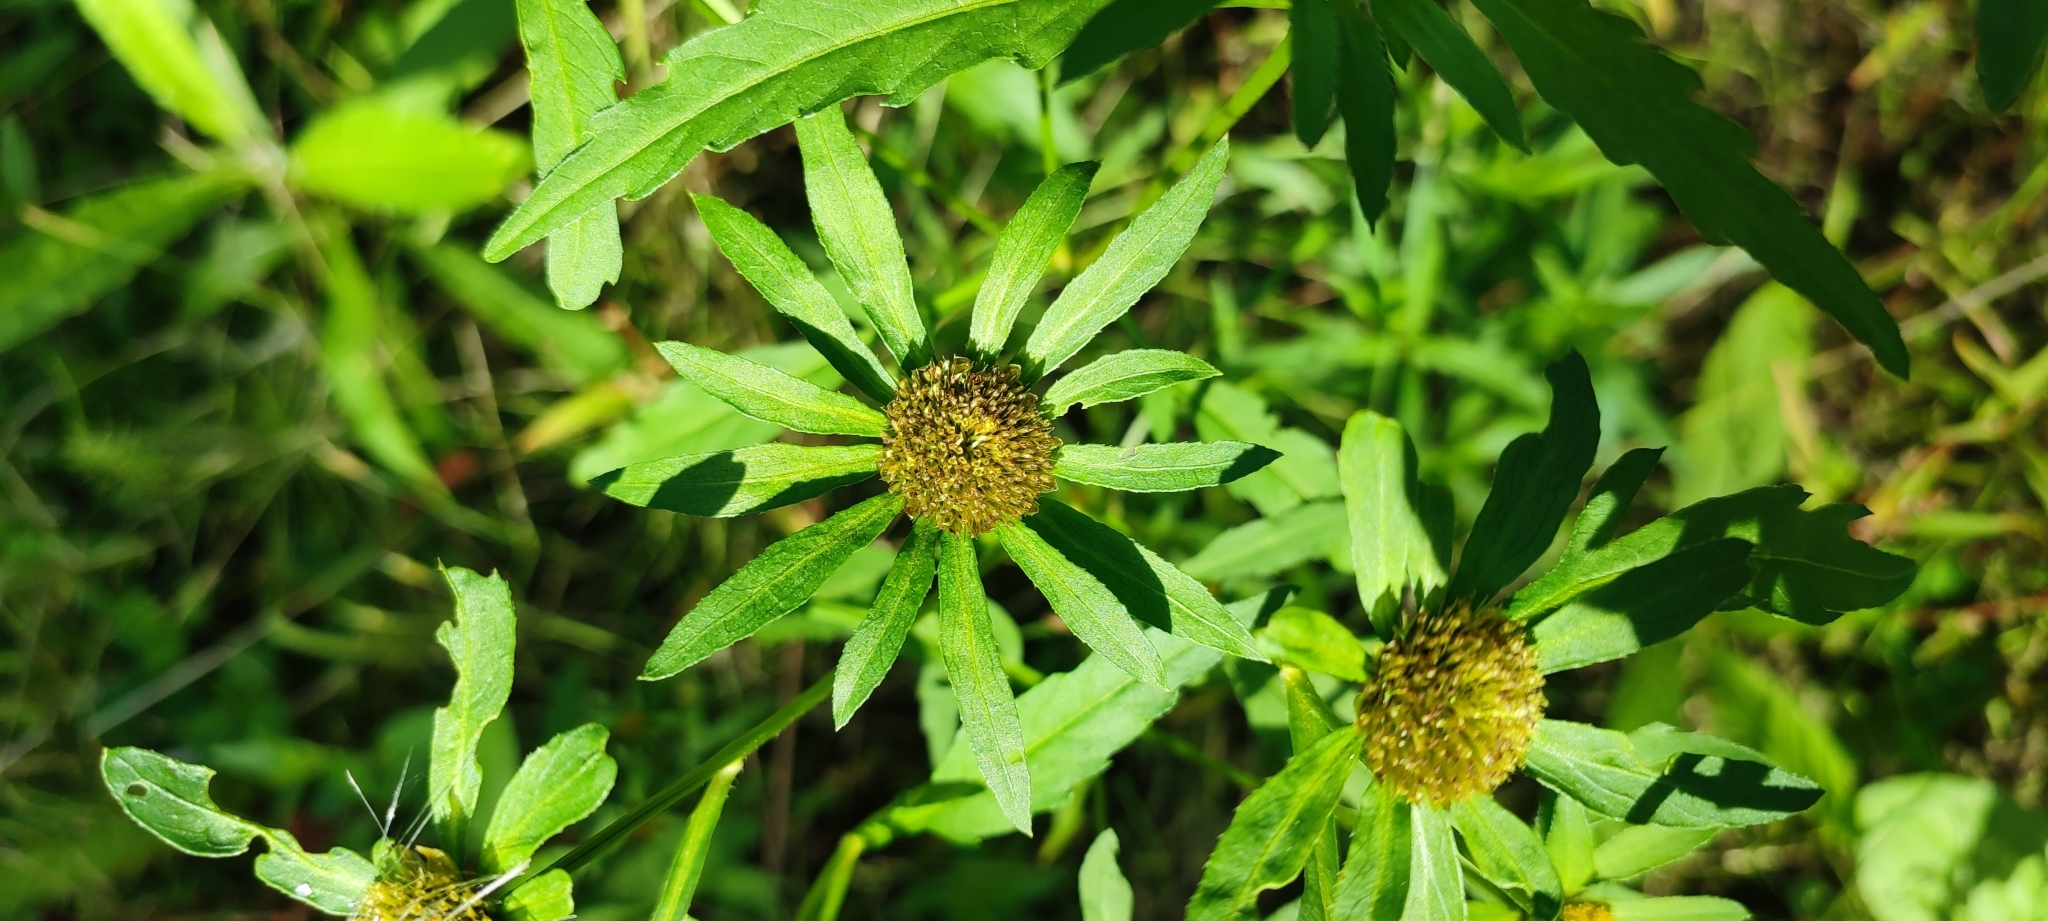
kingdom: Plantae
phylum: Tracheophyta
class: Magnoliopsida
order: Asterales
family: Asteraceae
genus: Bidens
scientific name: Bidens radiata
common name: Radiating bur-marigold
